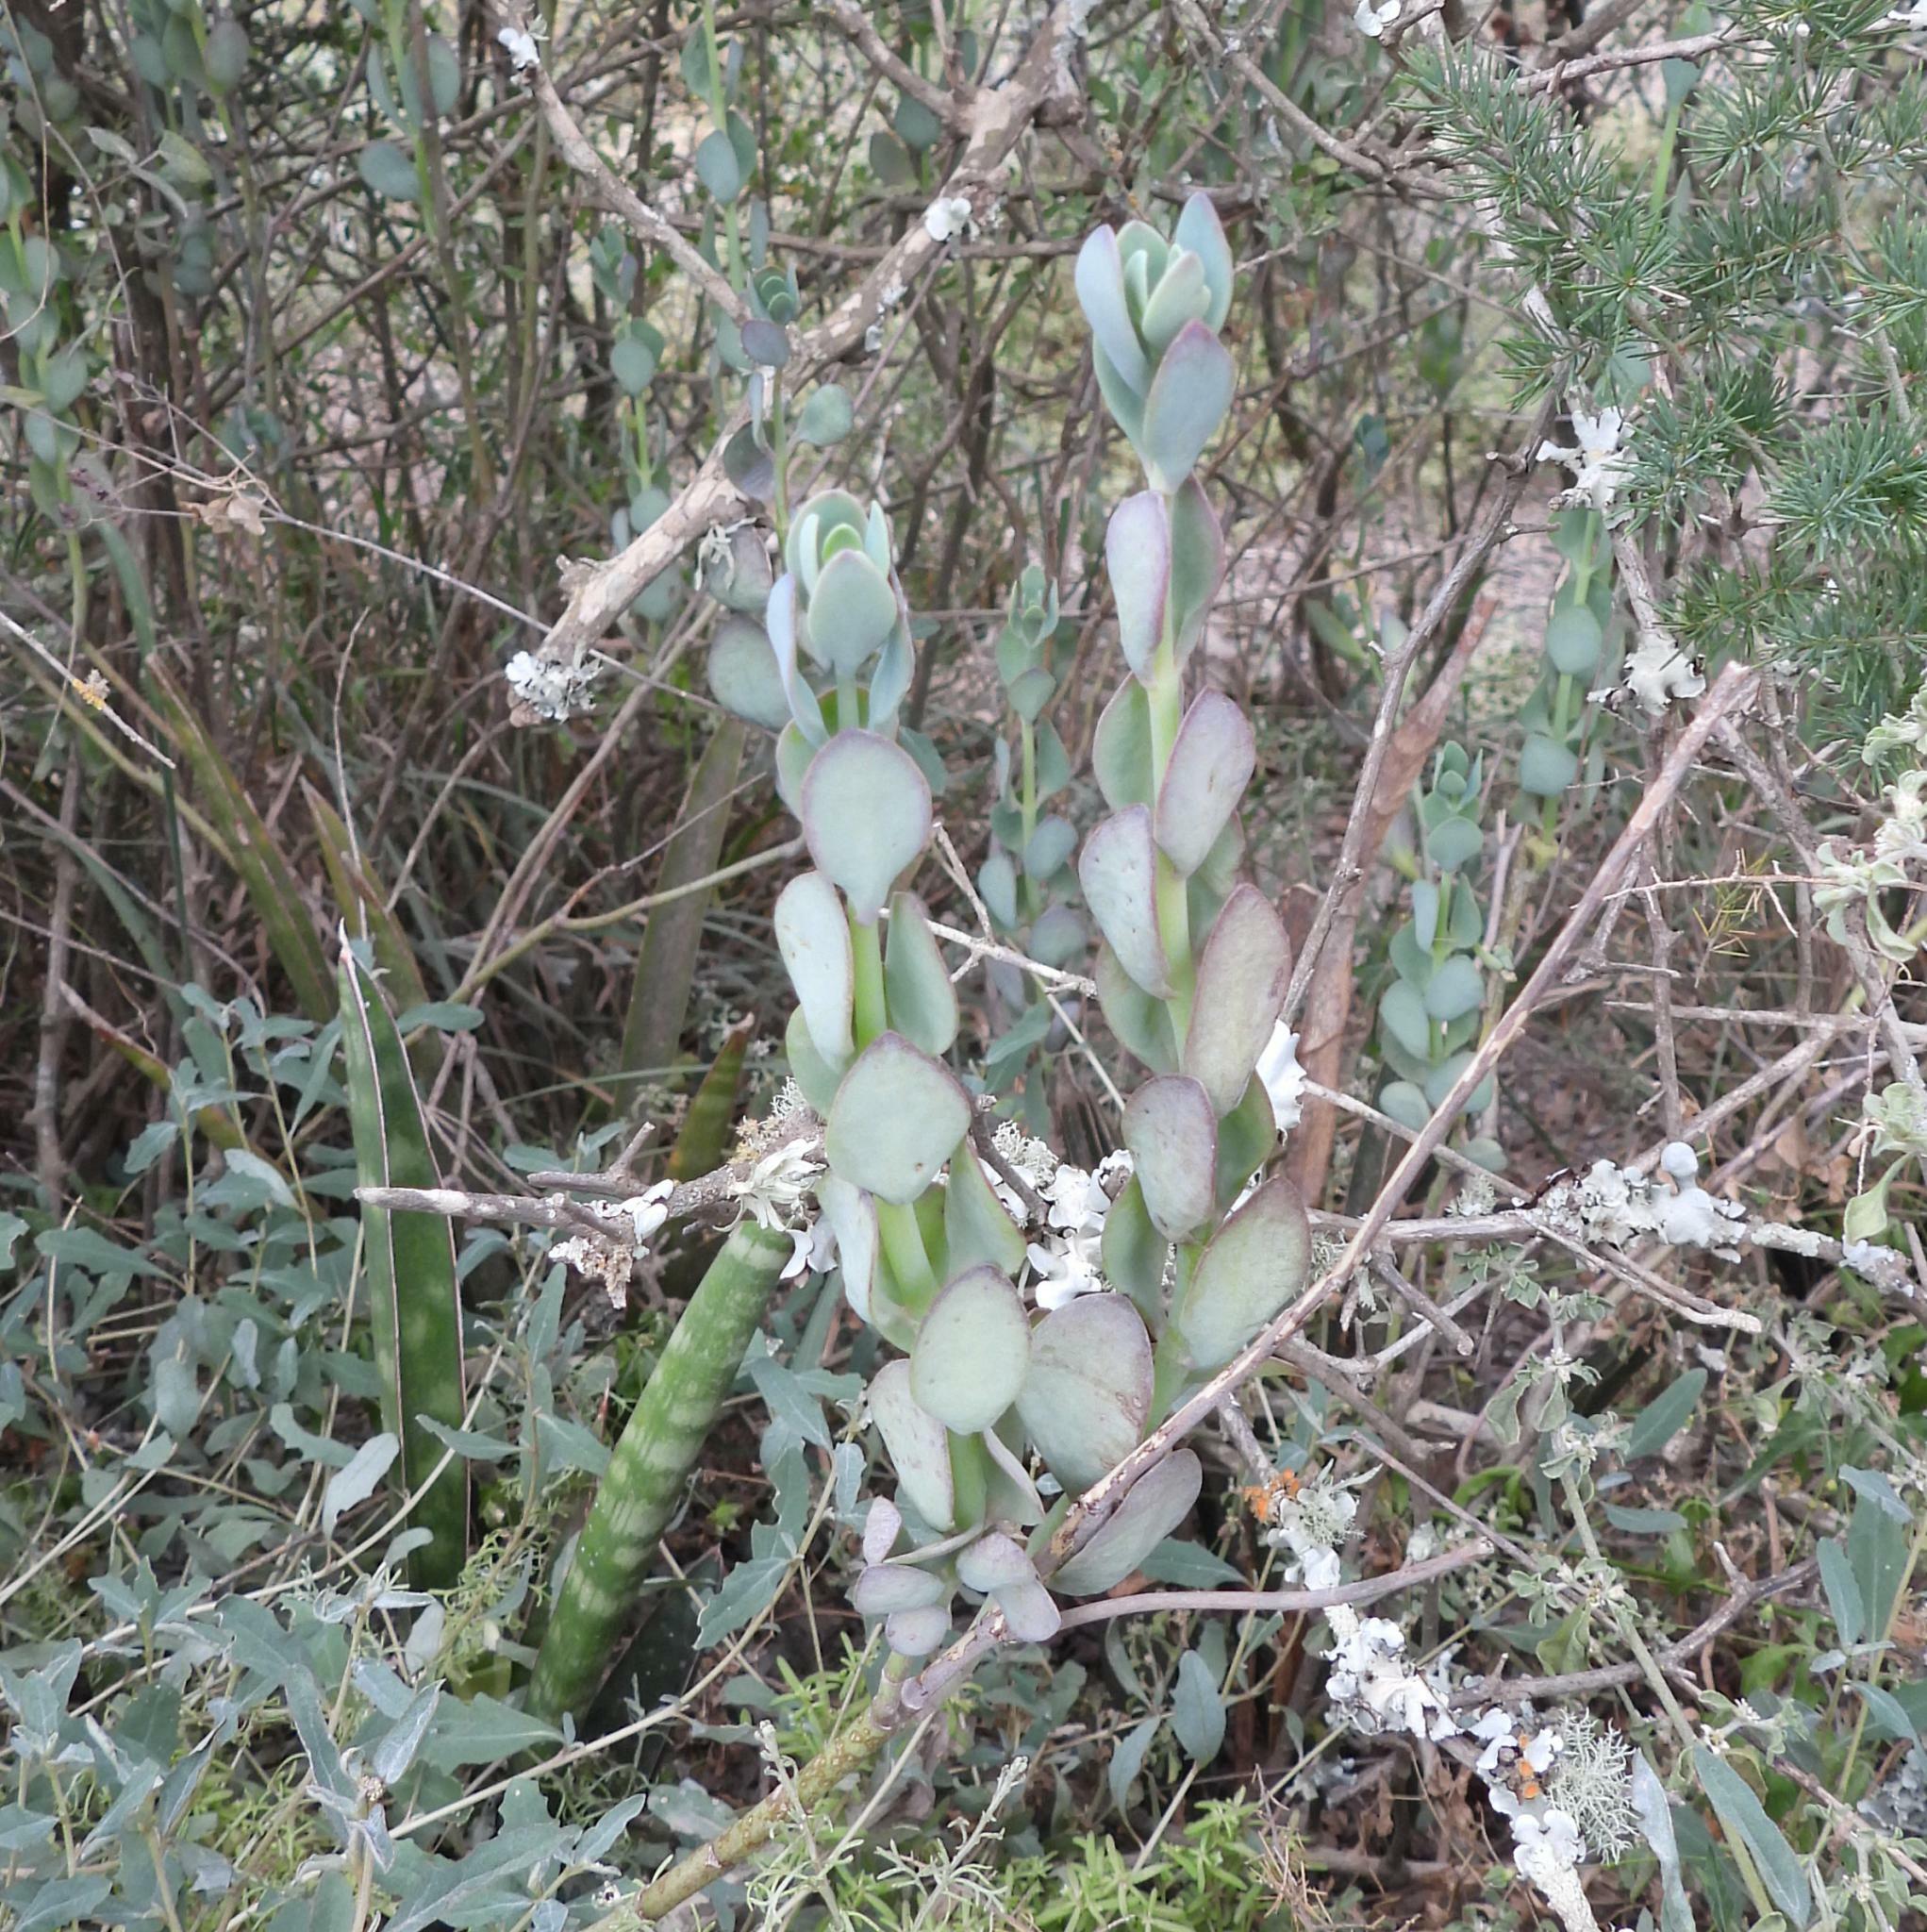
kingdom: Plantae
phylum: Tracheophyta
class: Magnoliopsida
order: Saxifragales
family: Crassulaceae
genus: Kalanchoe
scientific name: Kalanchoe rotundifolia
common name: Common kalanchoe
